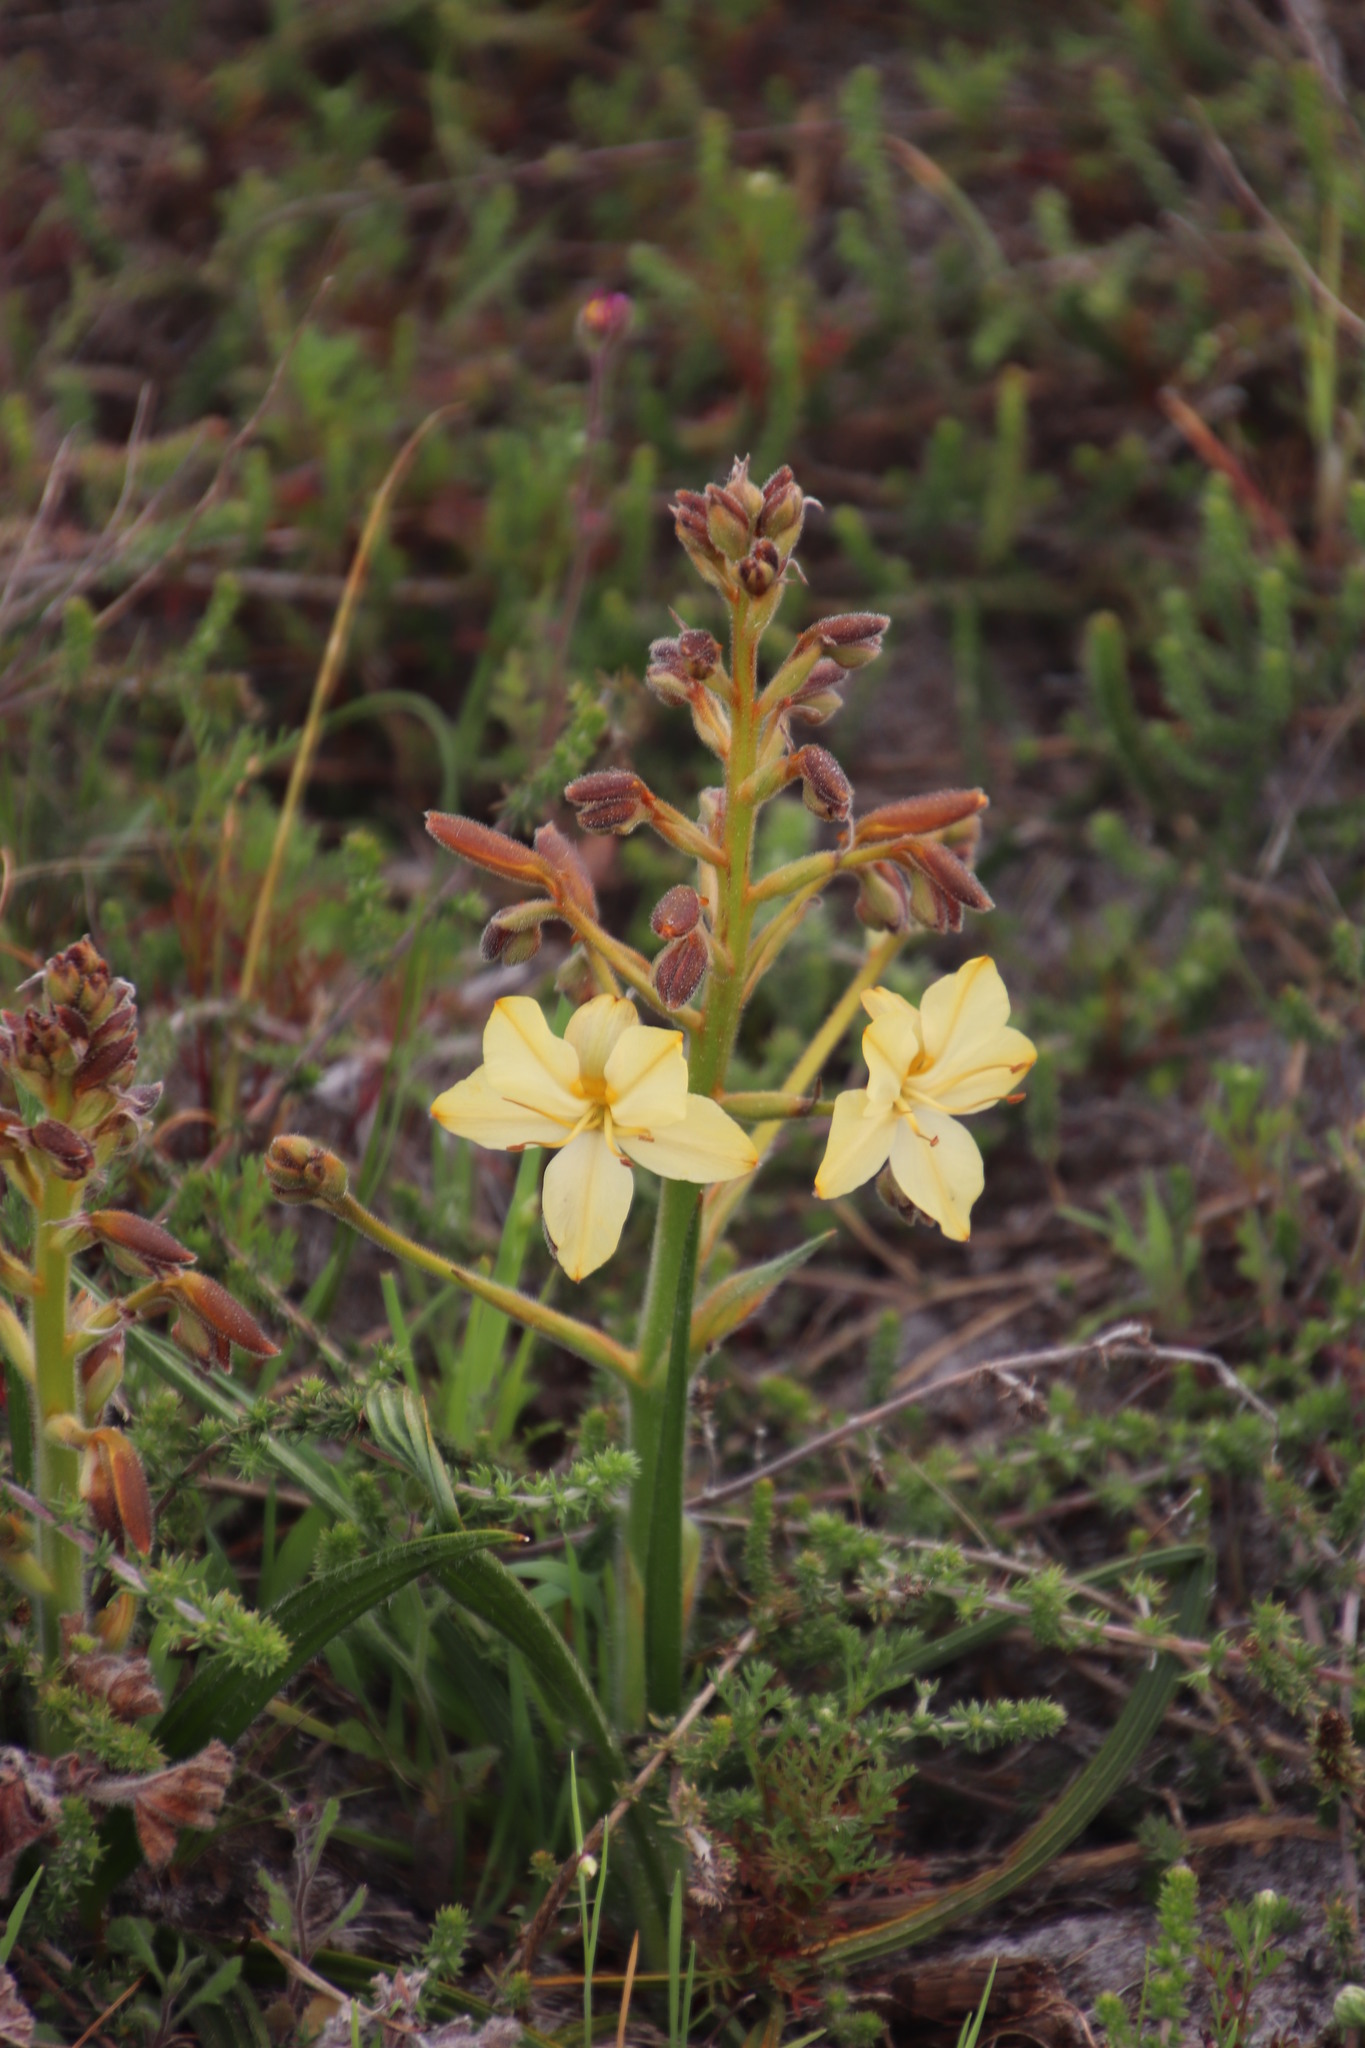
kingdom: Plantae
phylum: Tracheophyta
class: Liliopsida
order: Commelinales
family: Haemodoraceae
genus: Wachendorfia
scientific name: Wachendorfia paniculata
